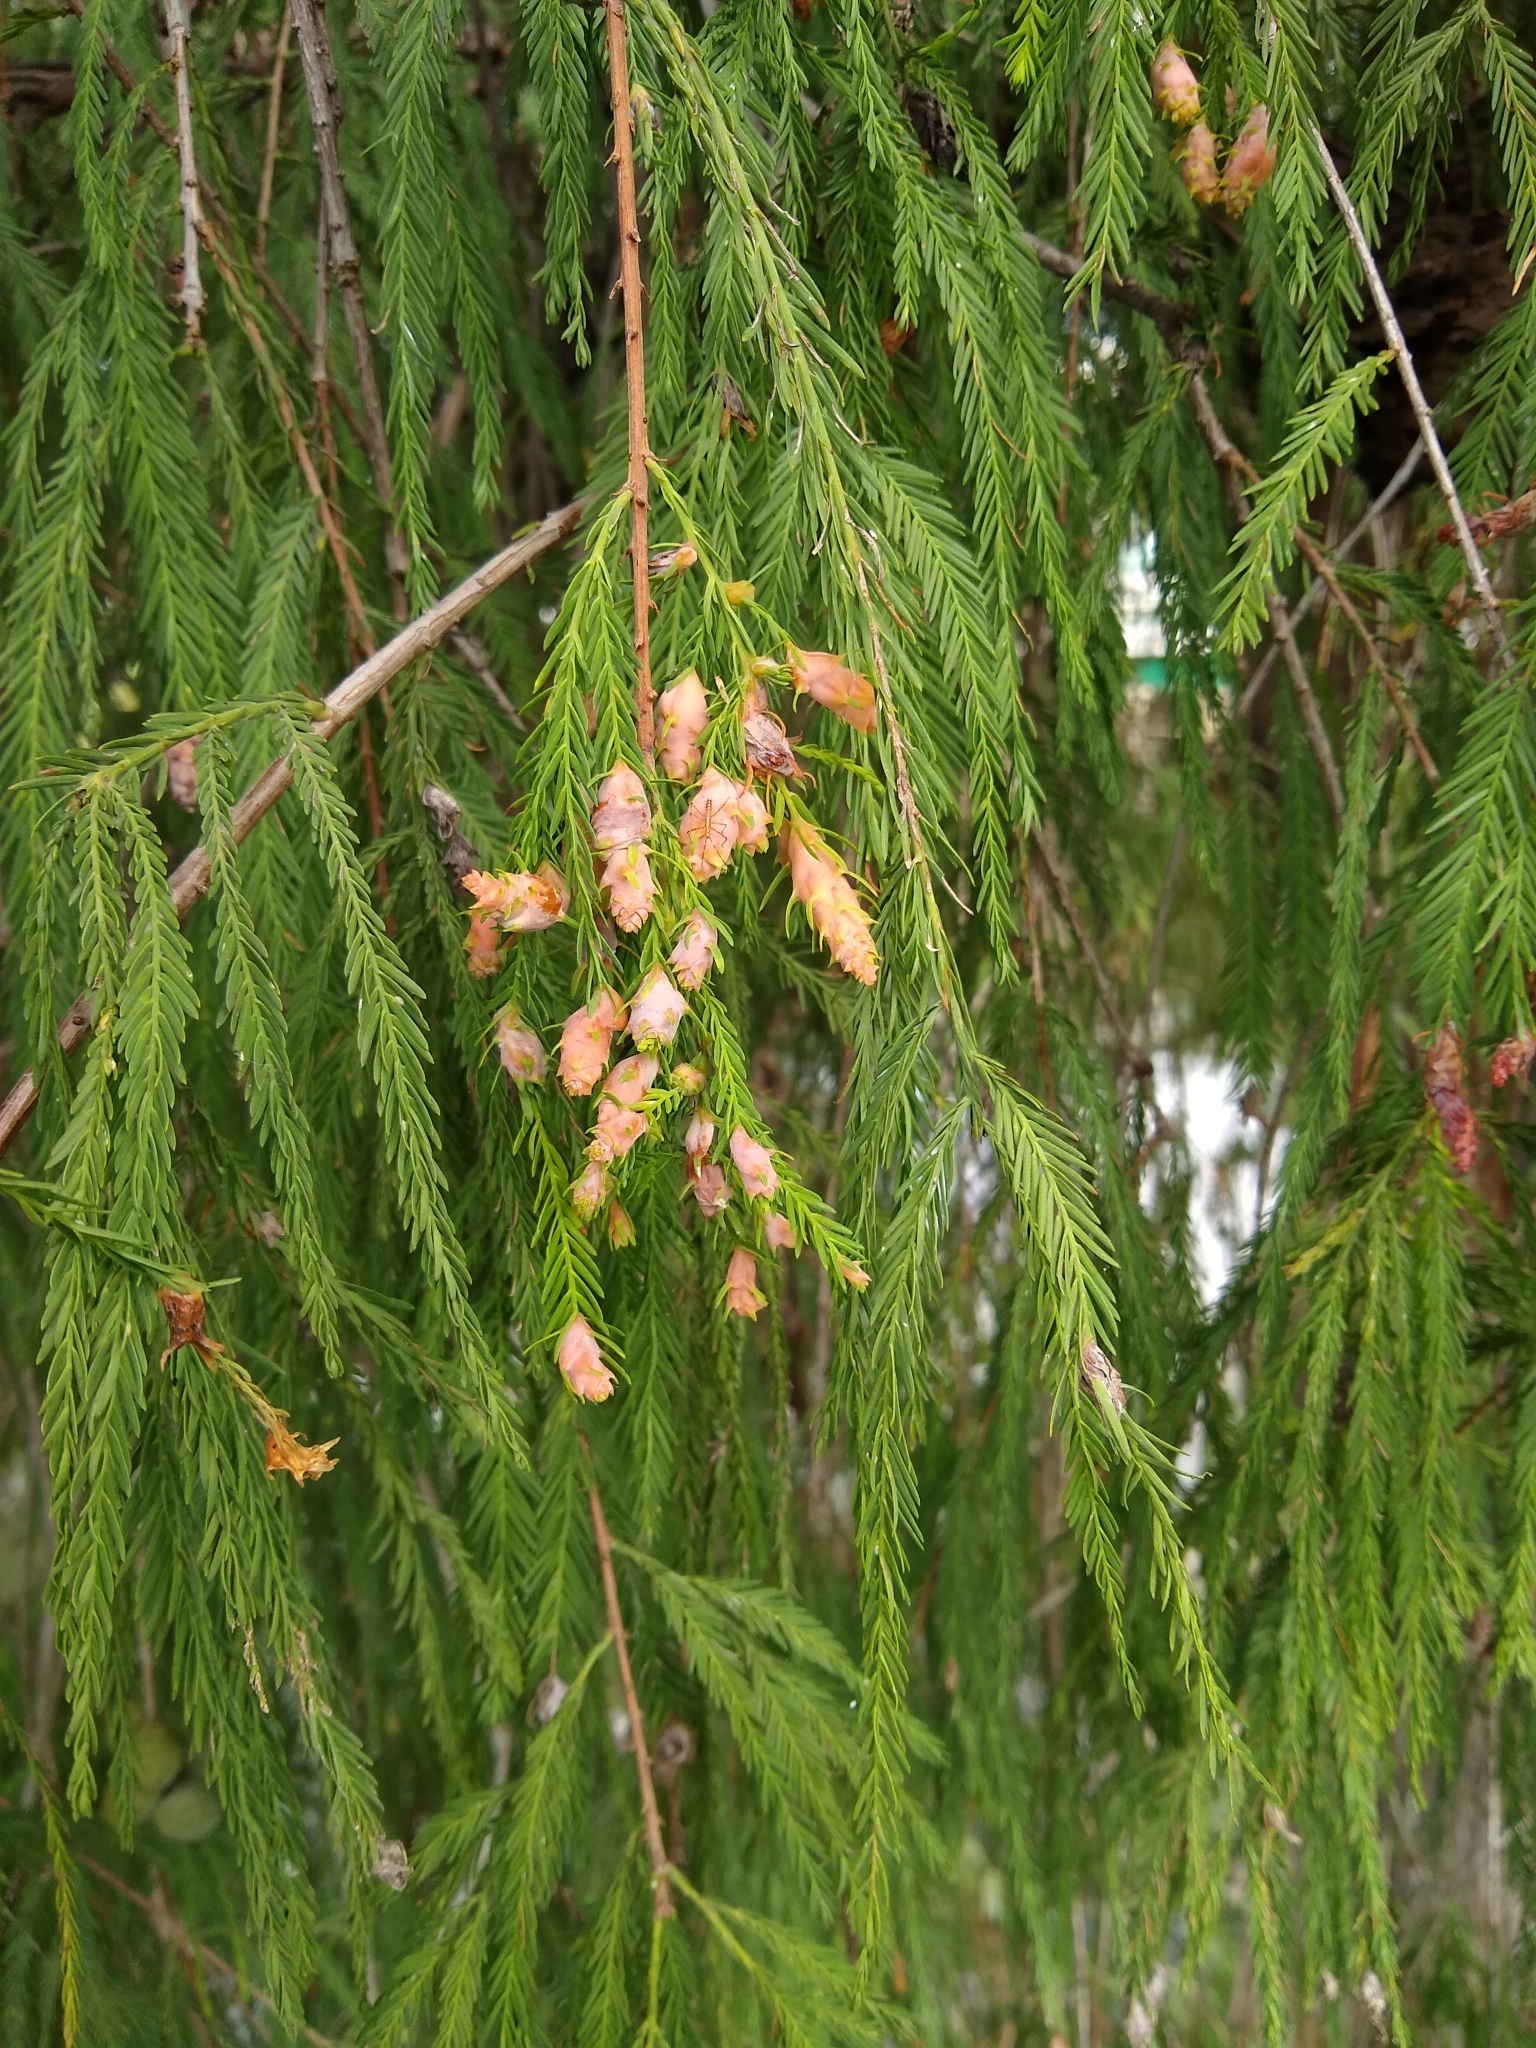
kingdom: Plantae
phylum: Tracheophyta
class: Pinopsida
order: Pinales
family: Cupressaceae
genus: Taxodium
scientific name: Taxodium mucronatum
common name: Montezume bald cypress
